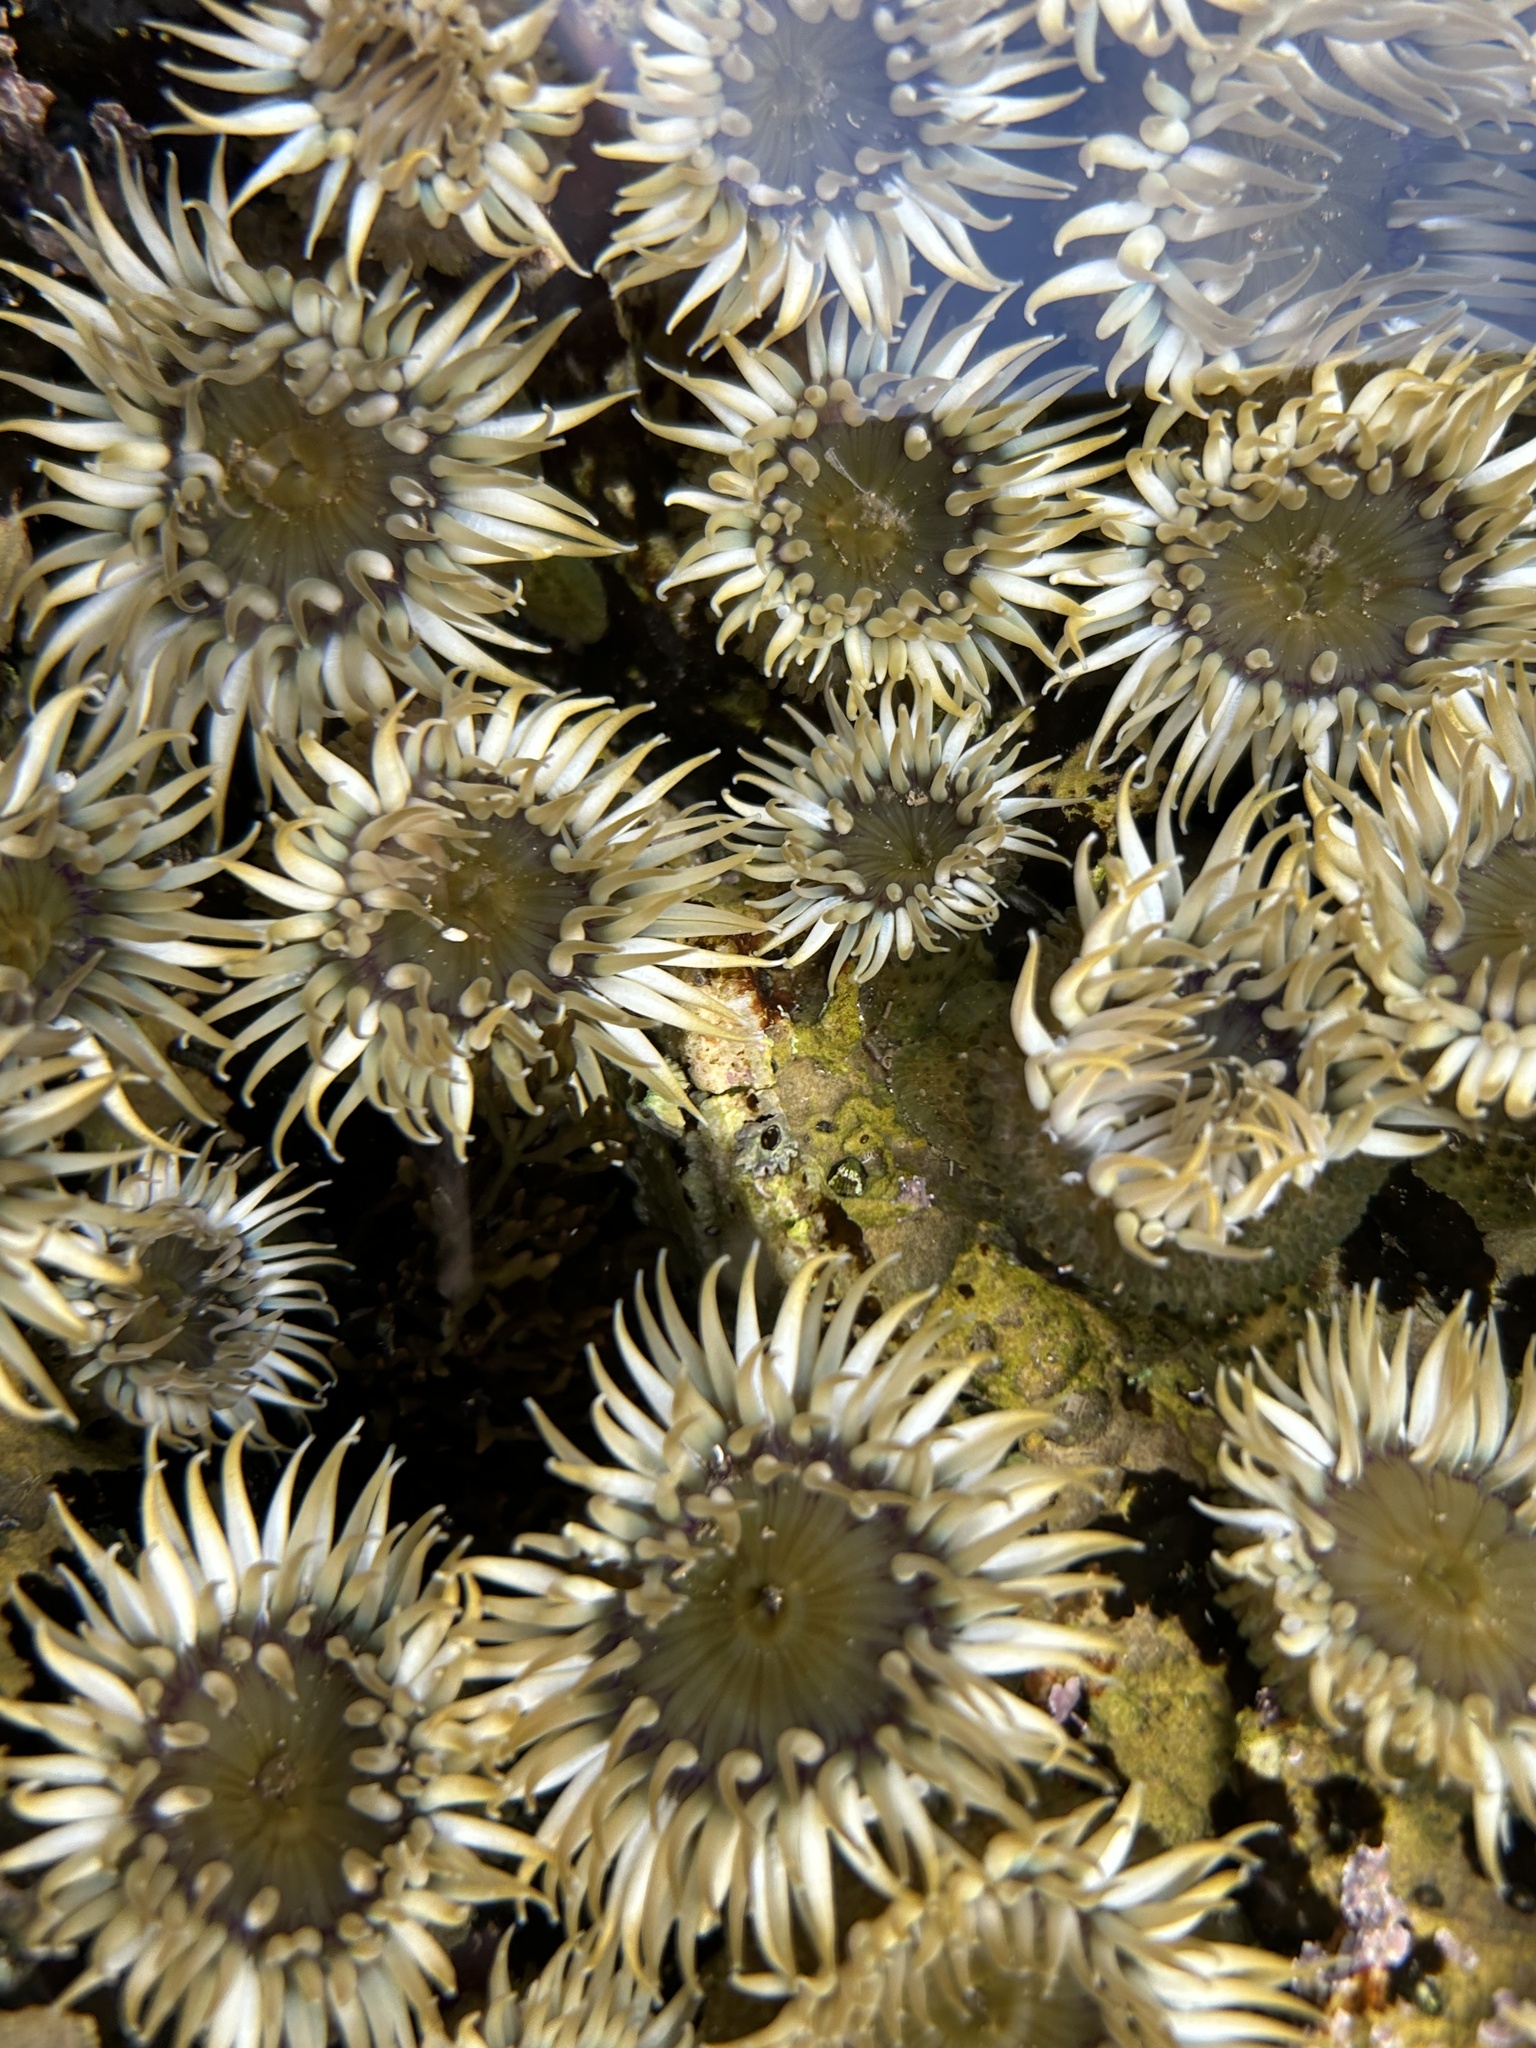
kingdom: Animalia
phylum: Cnidaria
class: Anthozoa
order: Actiniaria
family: Actiniidae
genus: Anthopleura
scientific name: Anthopleura elegantissima
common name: Clonal anemone
